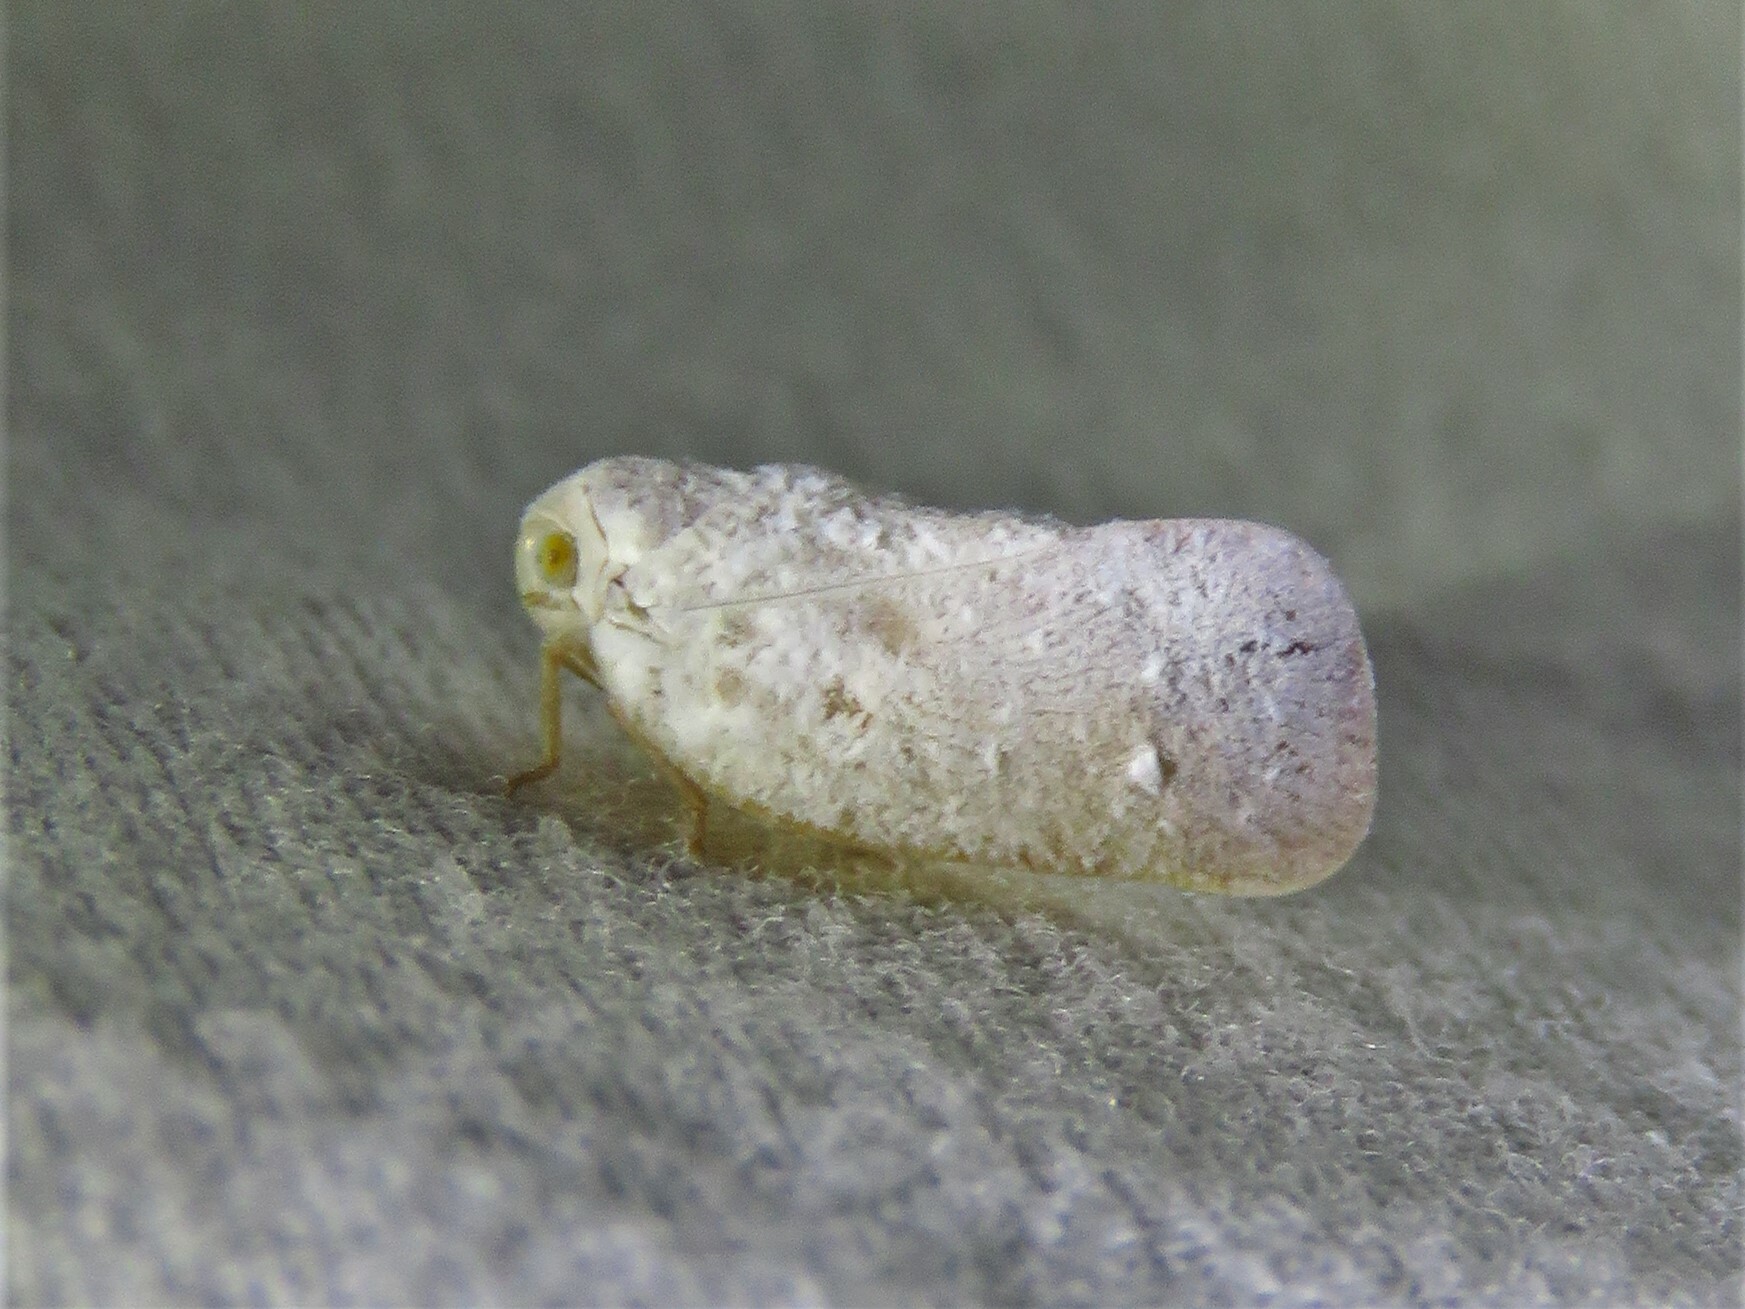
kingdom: Animalia
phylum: Arthropoda
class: Insecta
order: Hemiptera
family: Flatidae
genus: Metcalfa
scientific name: Metcalfa pruinosa
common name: Citrus flatid planthopper
